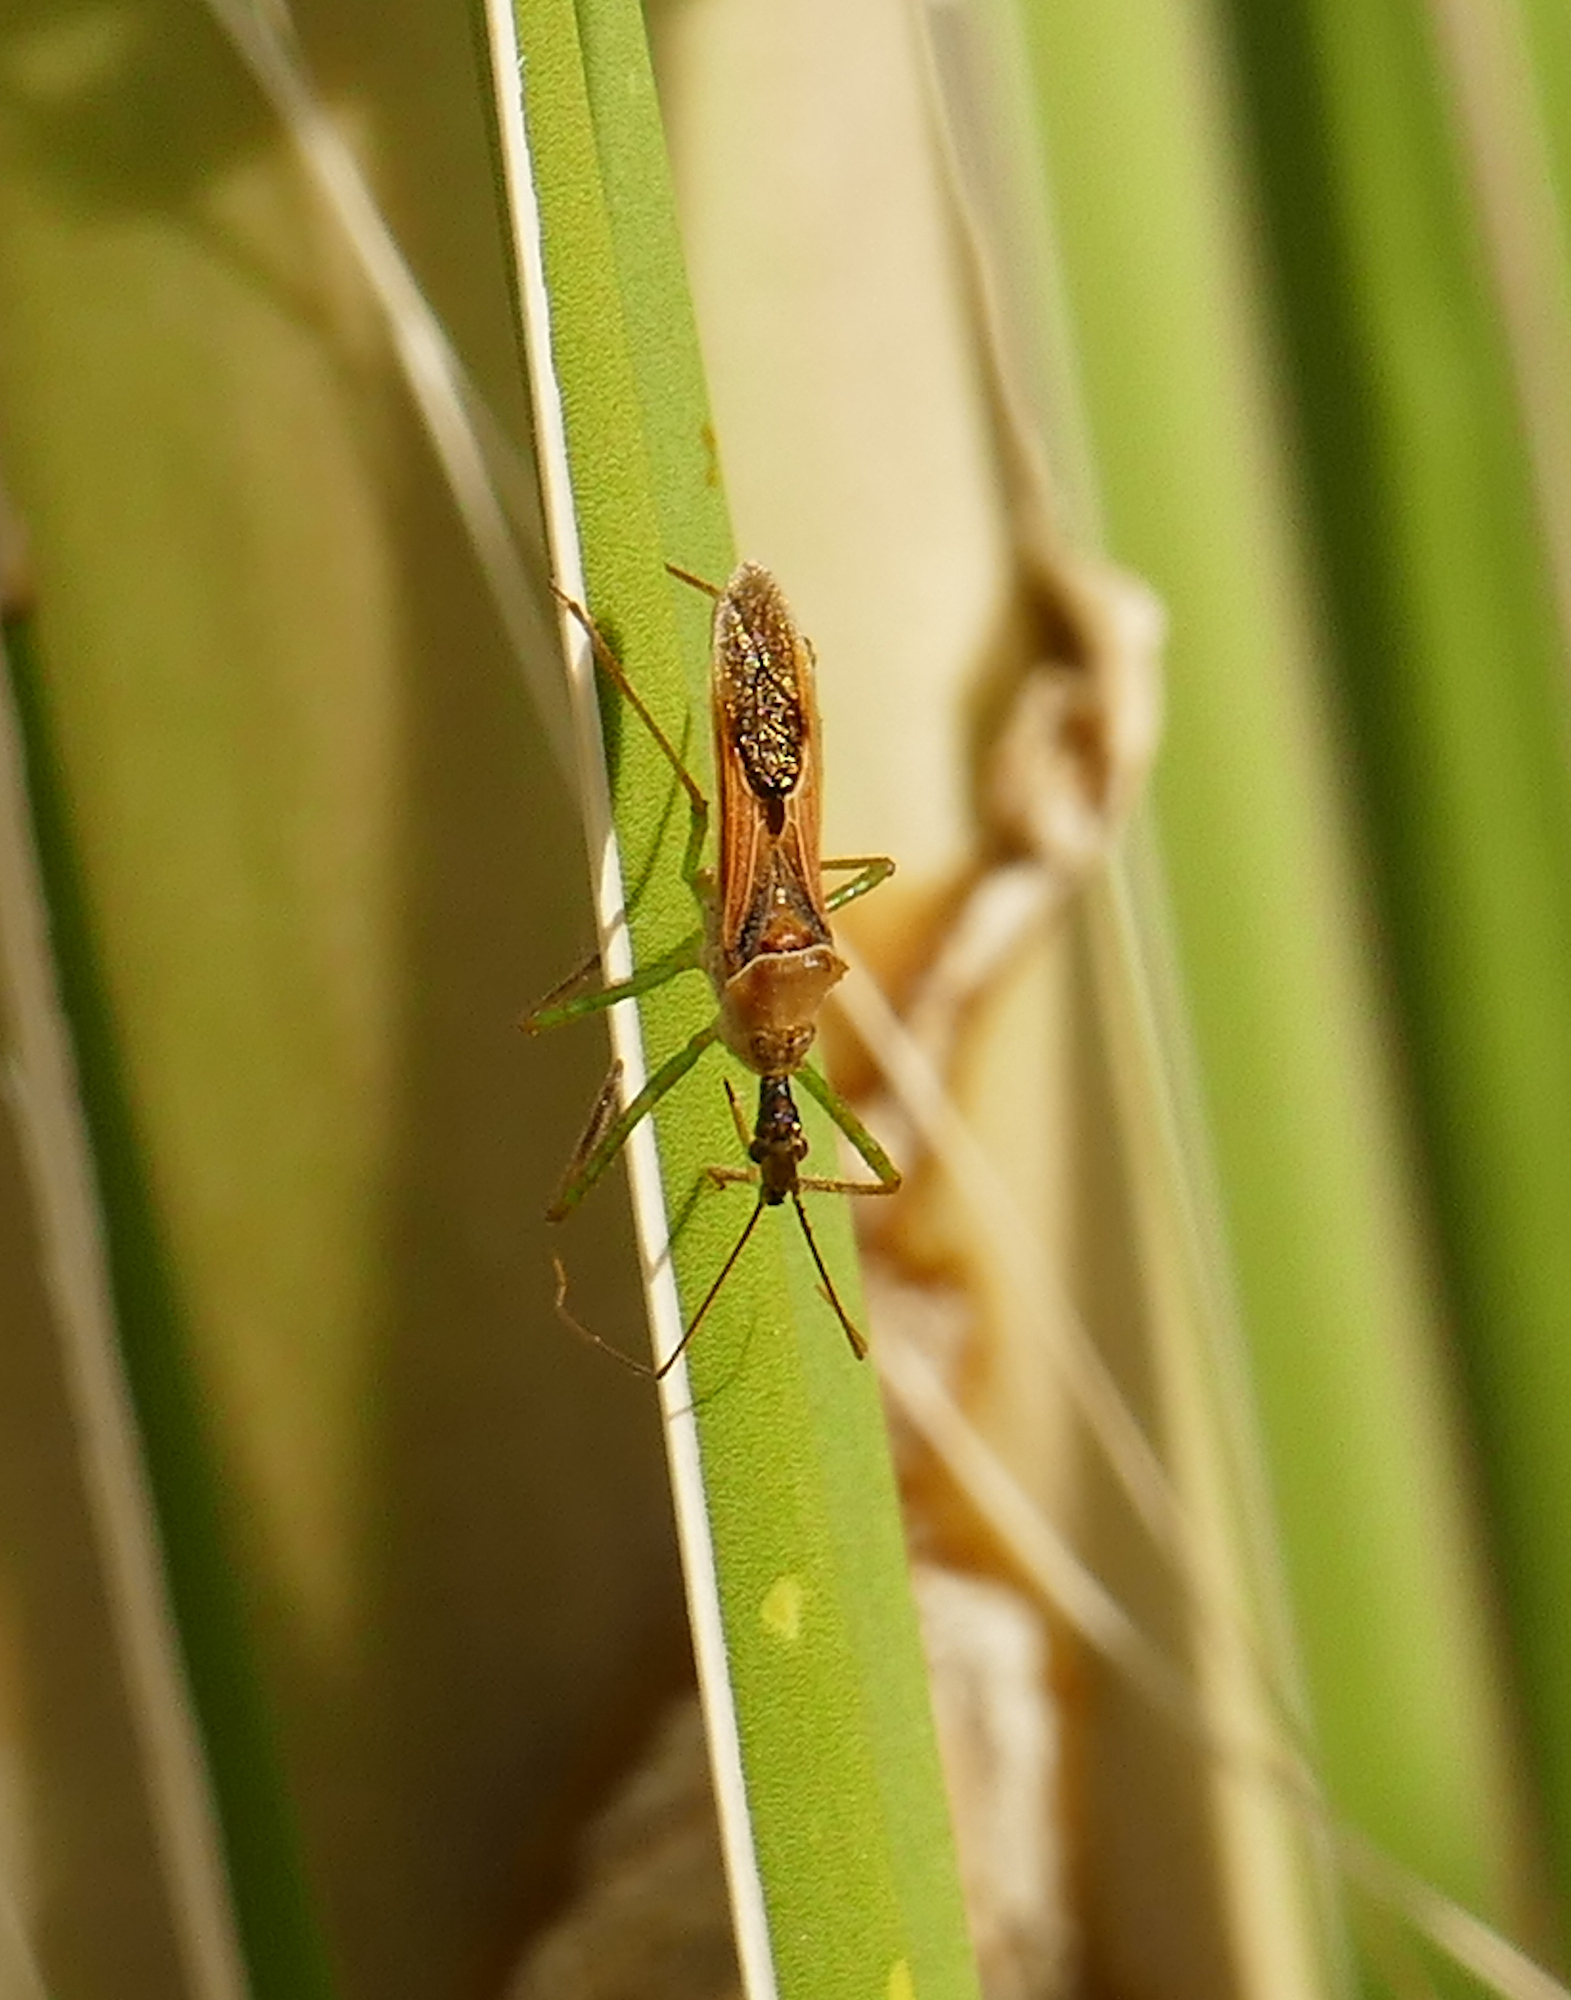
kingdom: Animalia
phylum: Arthropoda
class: Insecta
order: Hemiptera
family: Reduviidae
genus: Zelus
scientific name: Zelus renardii
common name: Assassin bug
